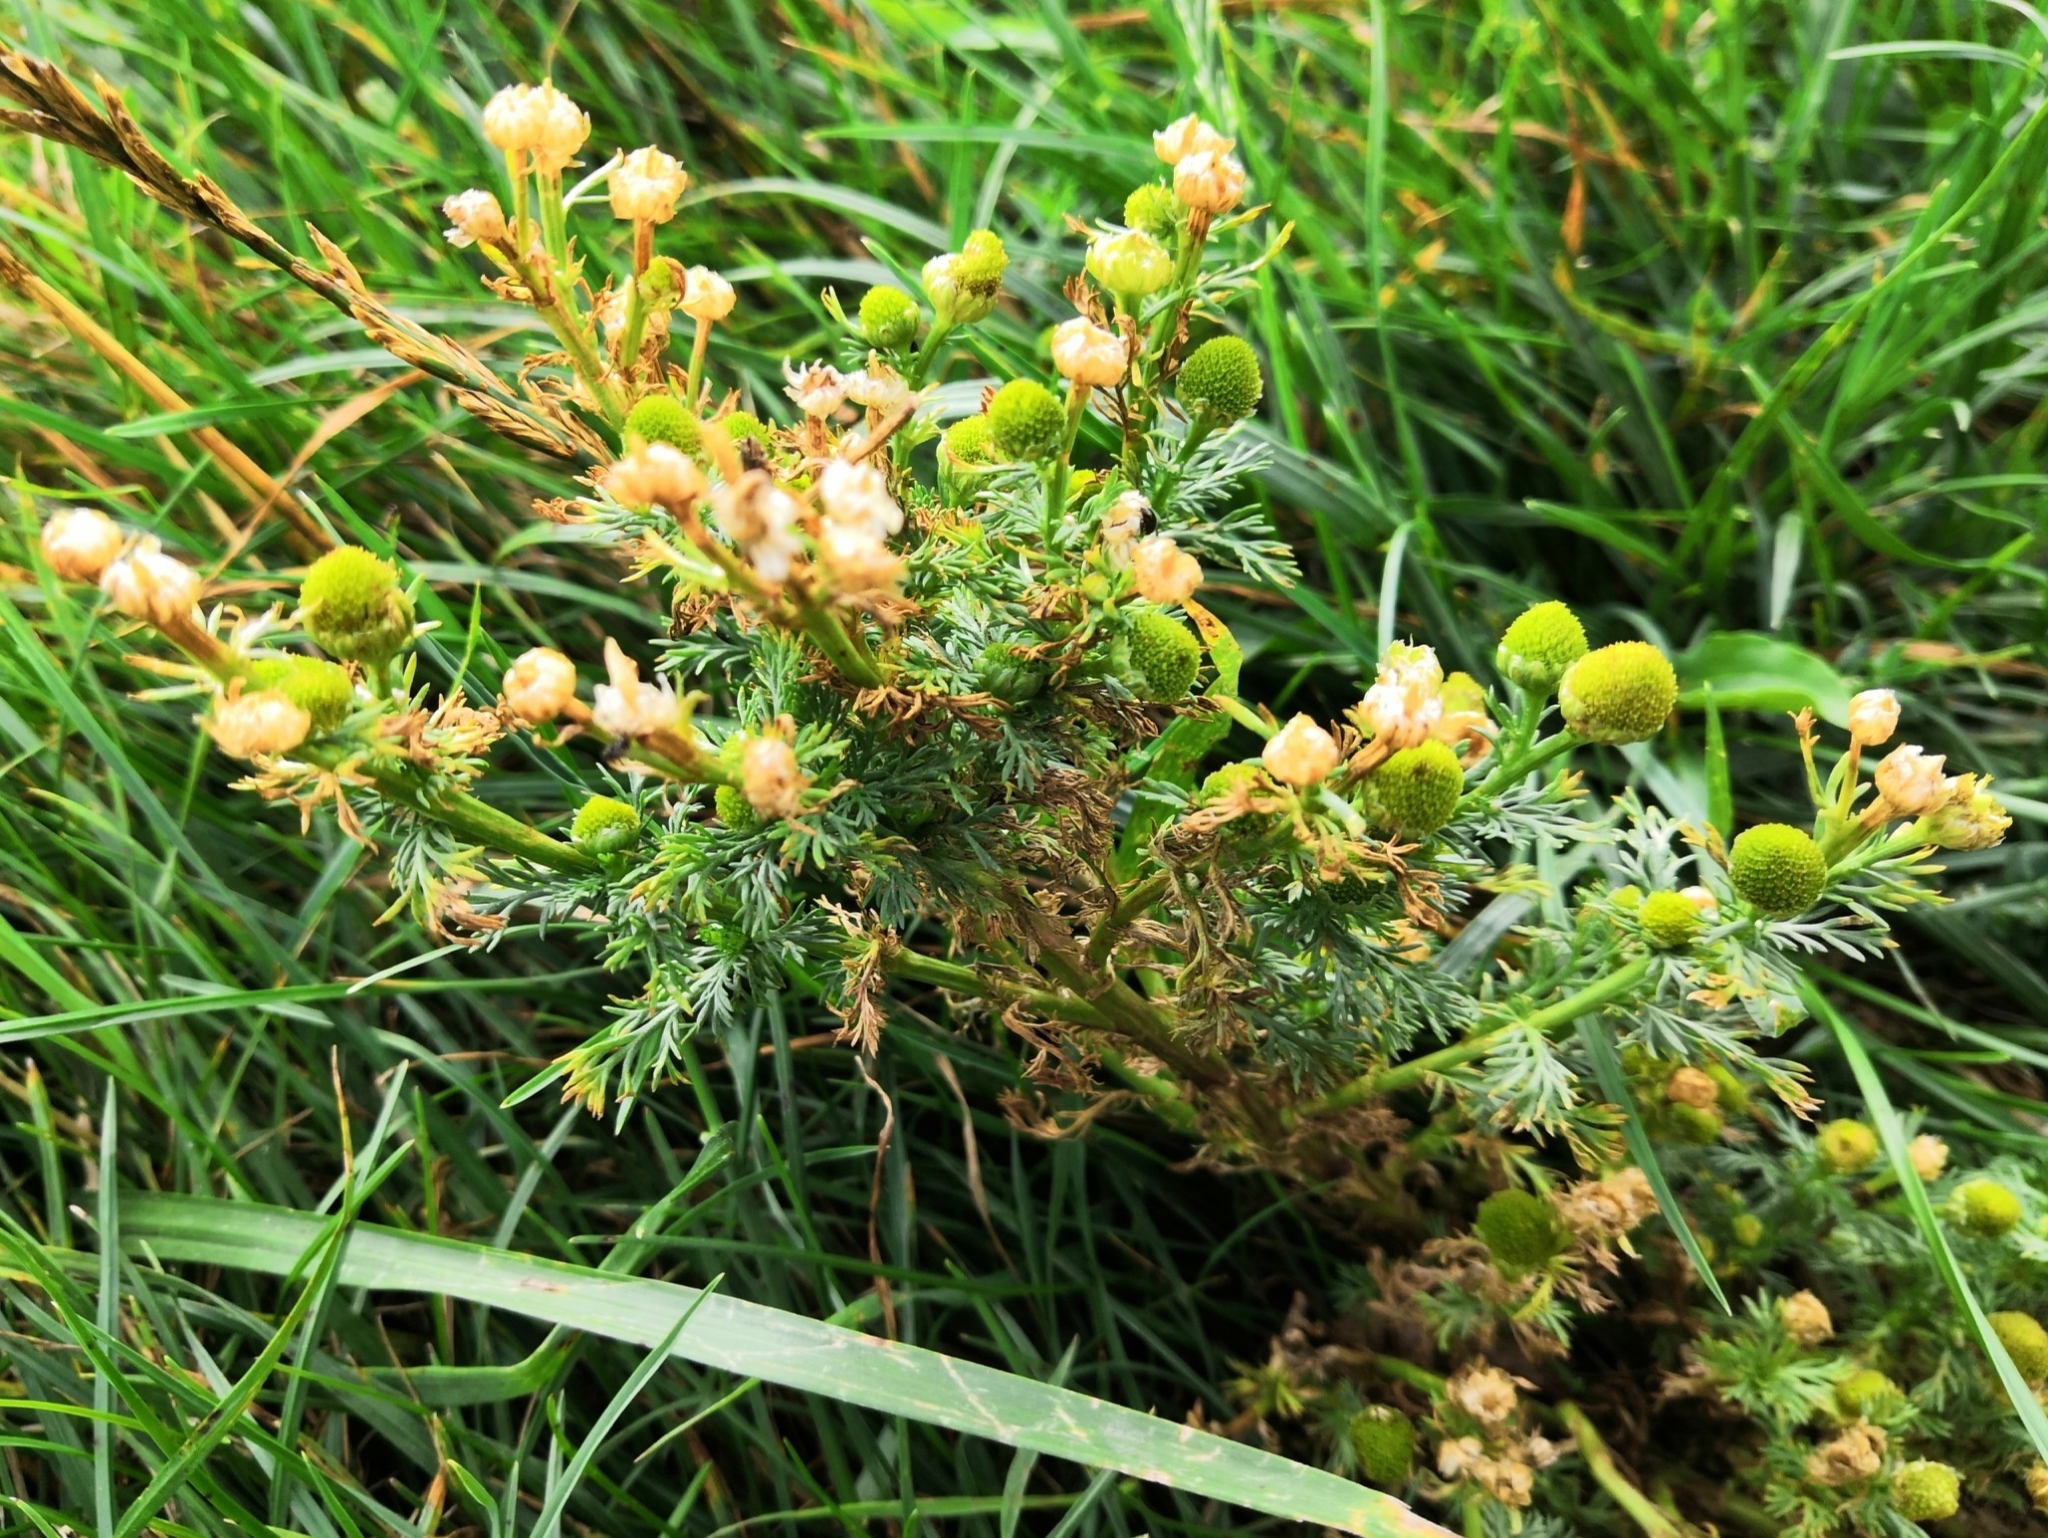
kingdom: Plantae
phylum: Tracheophyta
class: Magnoliopsida
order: Asterales
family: Asteraceae
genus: Matricaria
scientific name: Matricaria discoidea
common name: Disc mayweed
